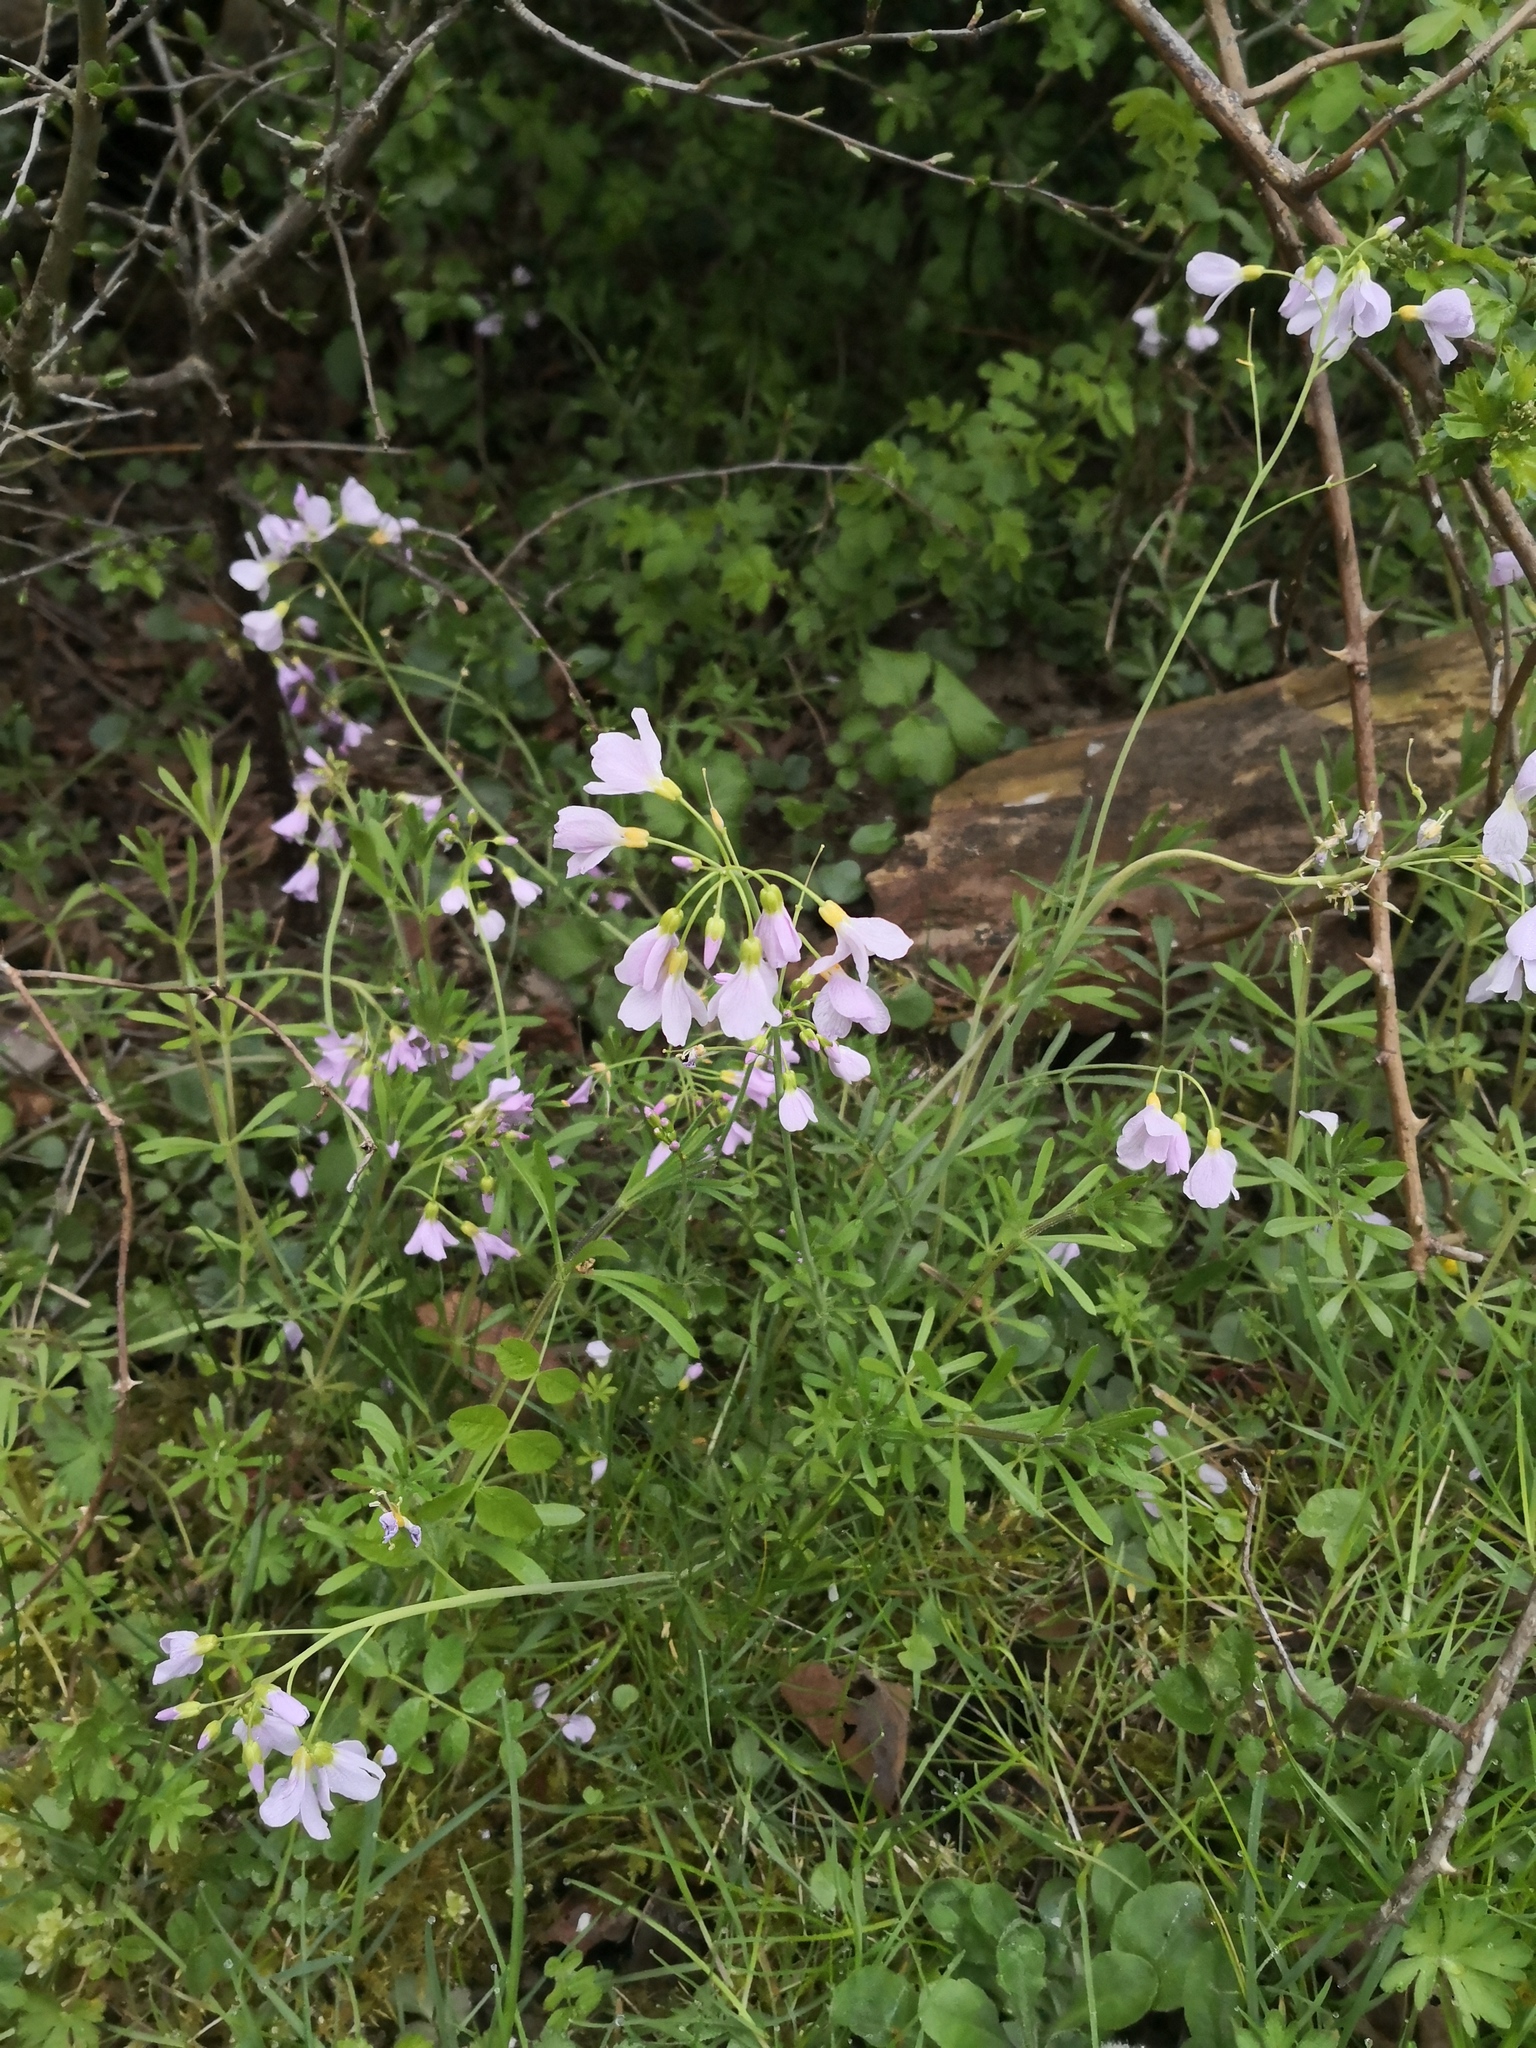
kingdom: Plantae
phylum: Tracheophyta
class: Magnoliopsida
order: Brassicales
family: Brassicaceae
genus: Cardamine
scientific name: Cardamine pratensis
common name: Cuckoo flower
